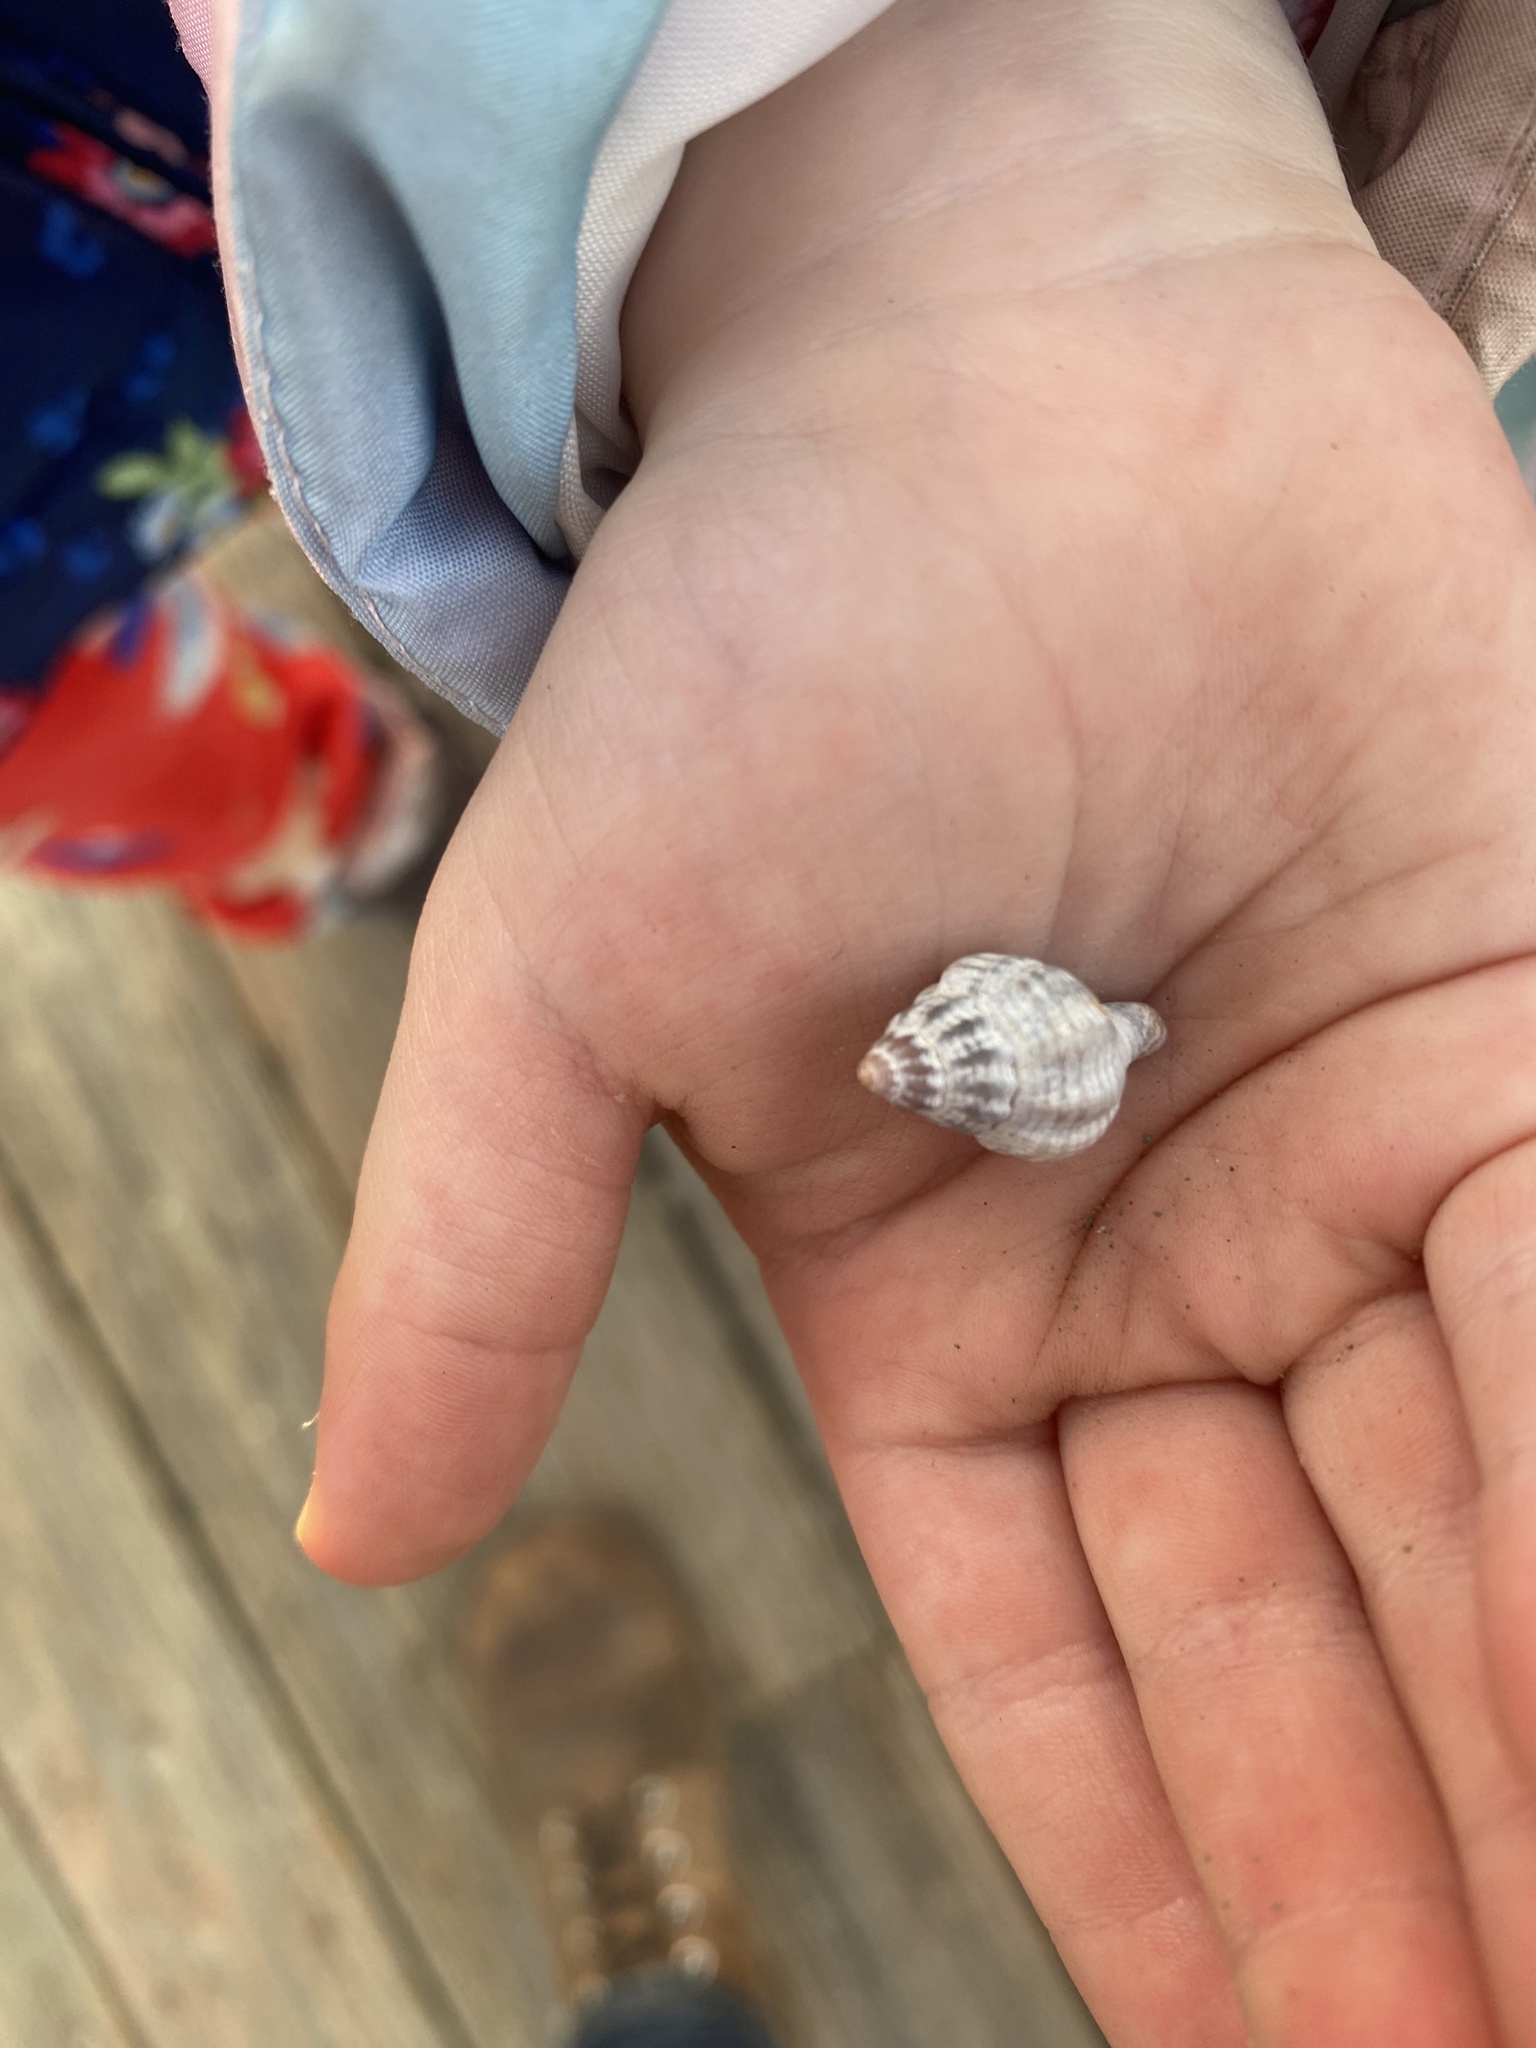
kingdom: Animalia
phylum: Mollusca
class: Gastropoda
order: Neogastropoda
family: Muricidae
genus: Urosalpinx
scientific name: Urosalpinx cinerea
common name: American sting winkle
